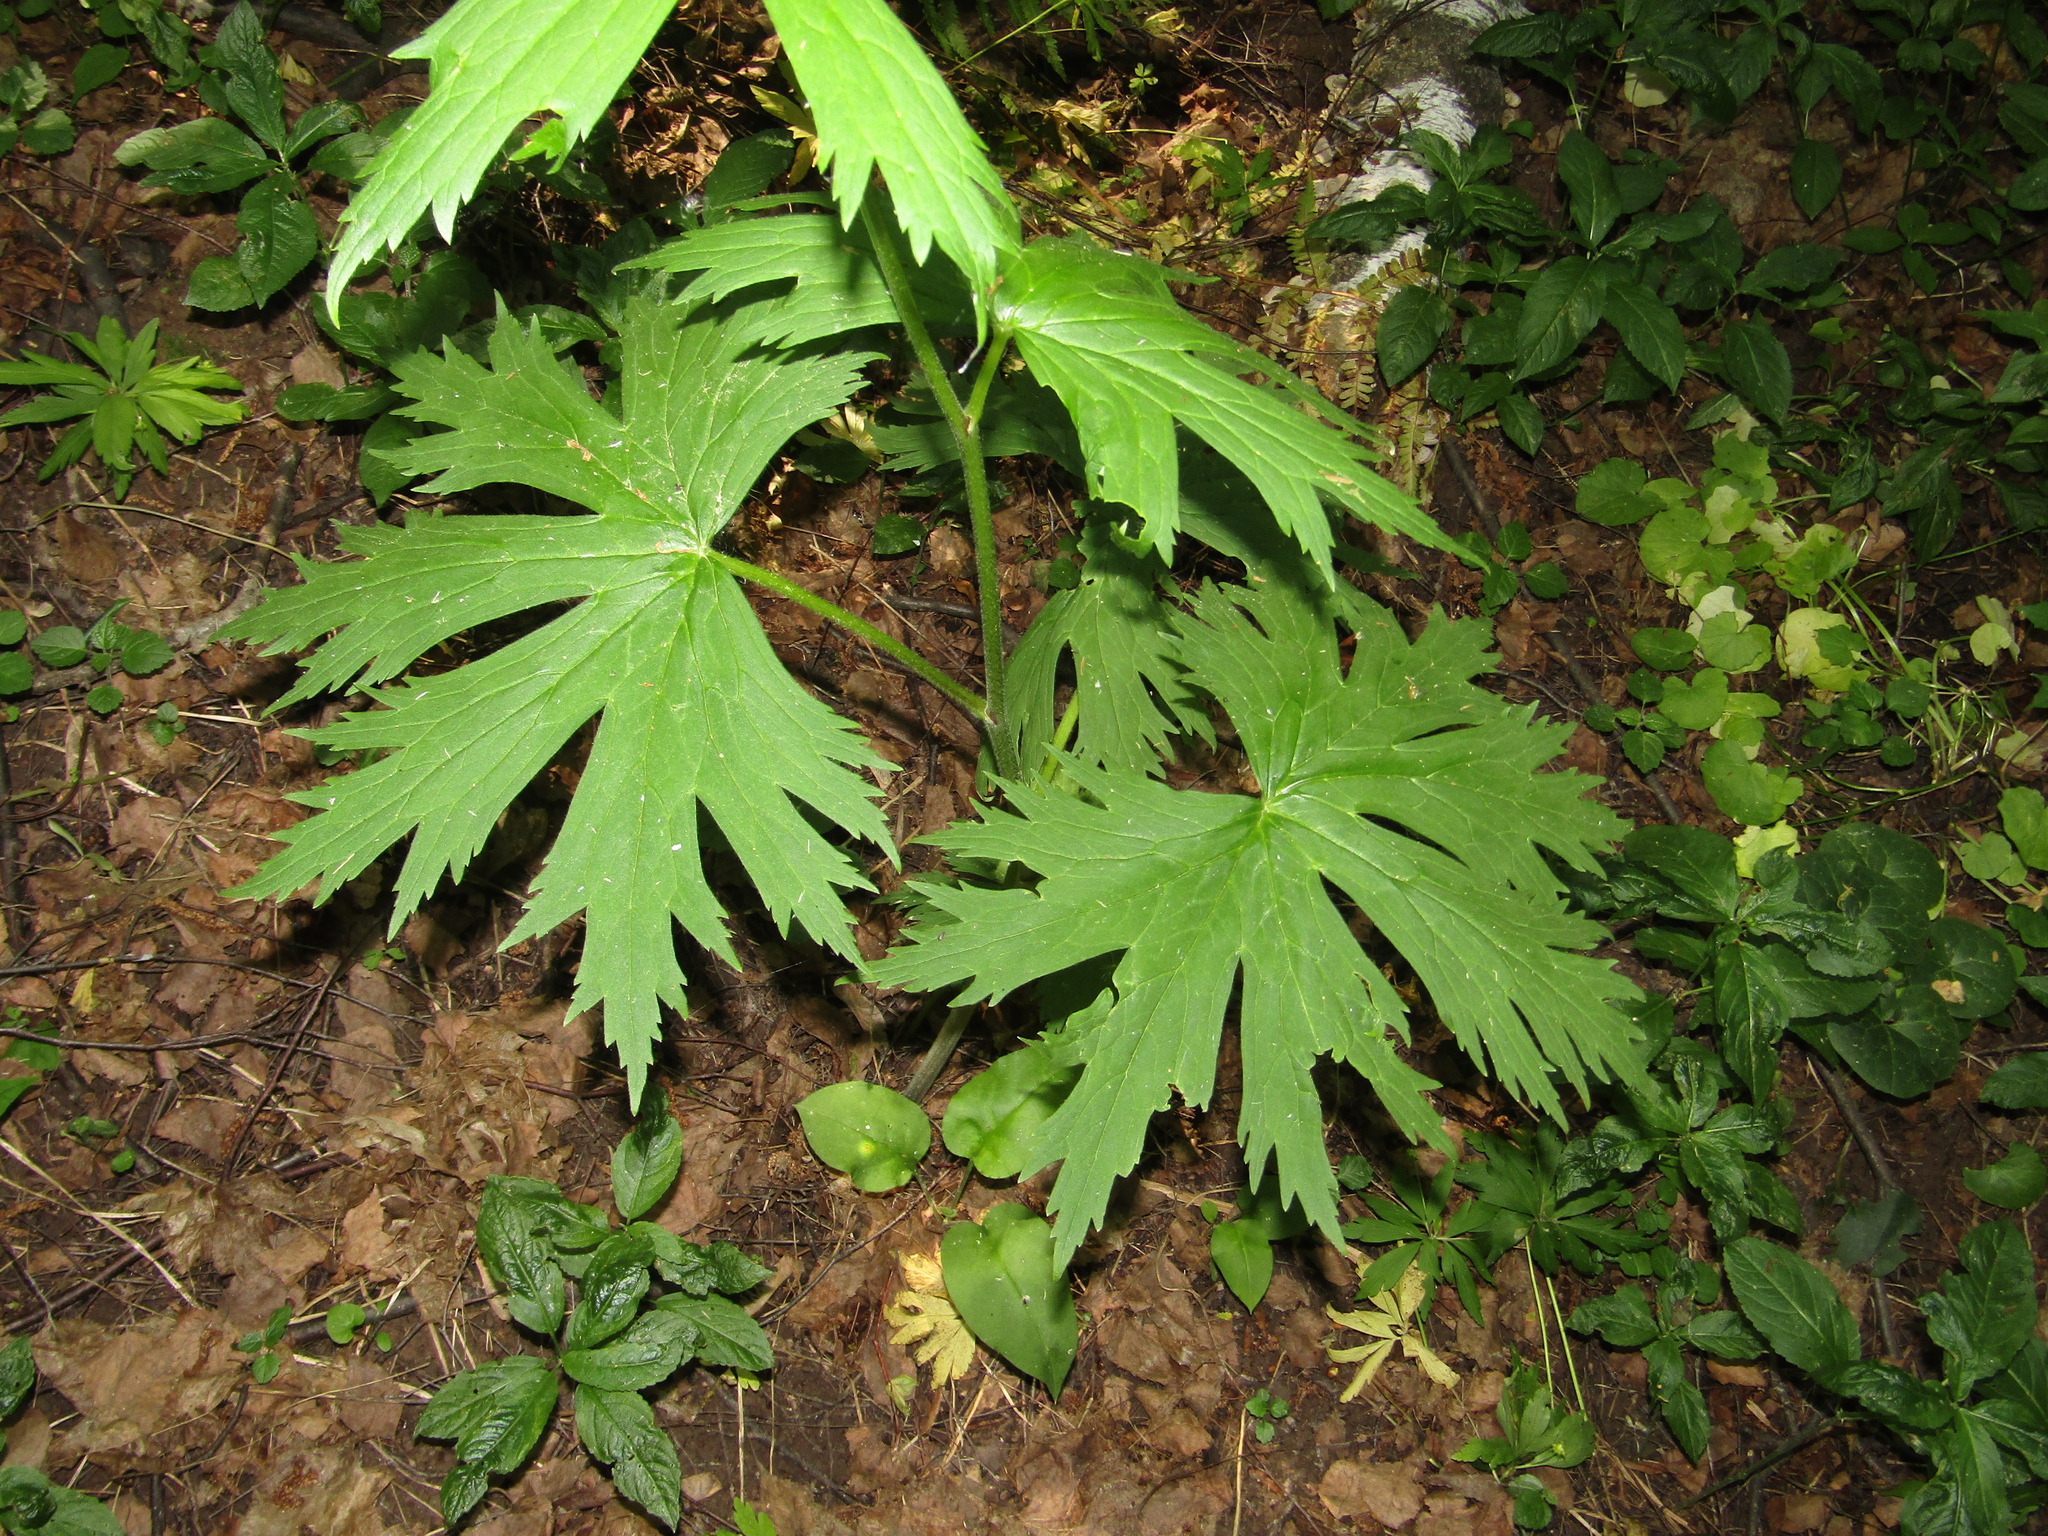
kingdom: Plantae
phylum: Tracheophyta
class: Magnoliopsida
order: Ranunculales
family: Ranunculaceae
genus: Aconitum
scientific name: Aconitum septentrionale
